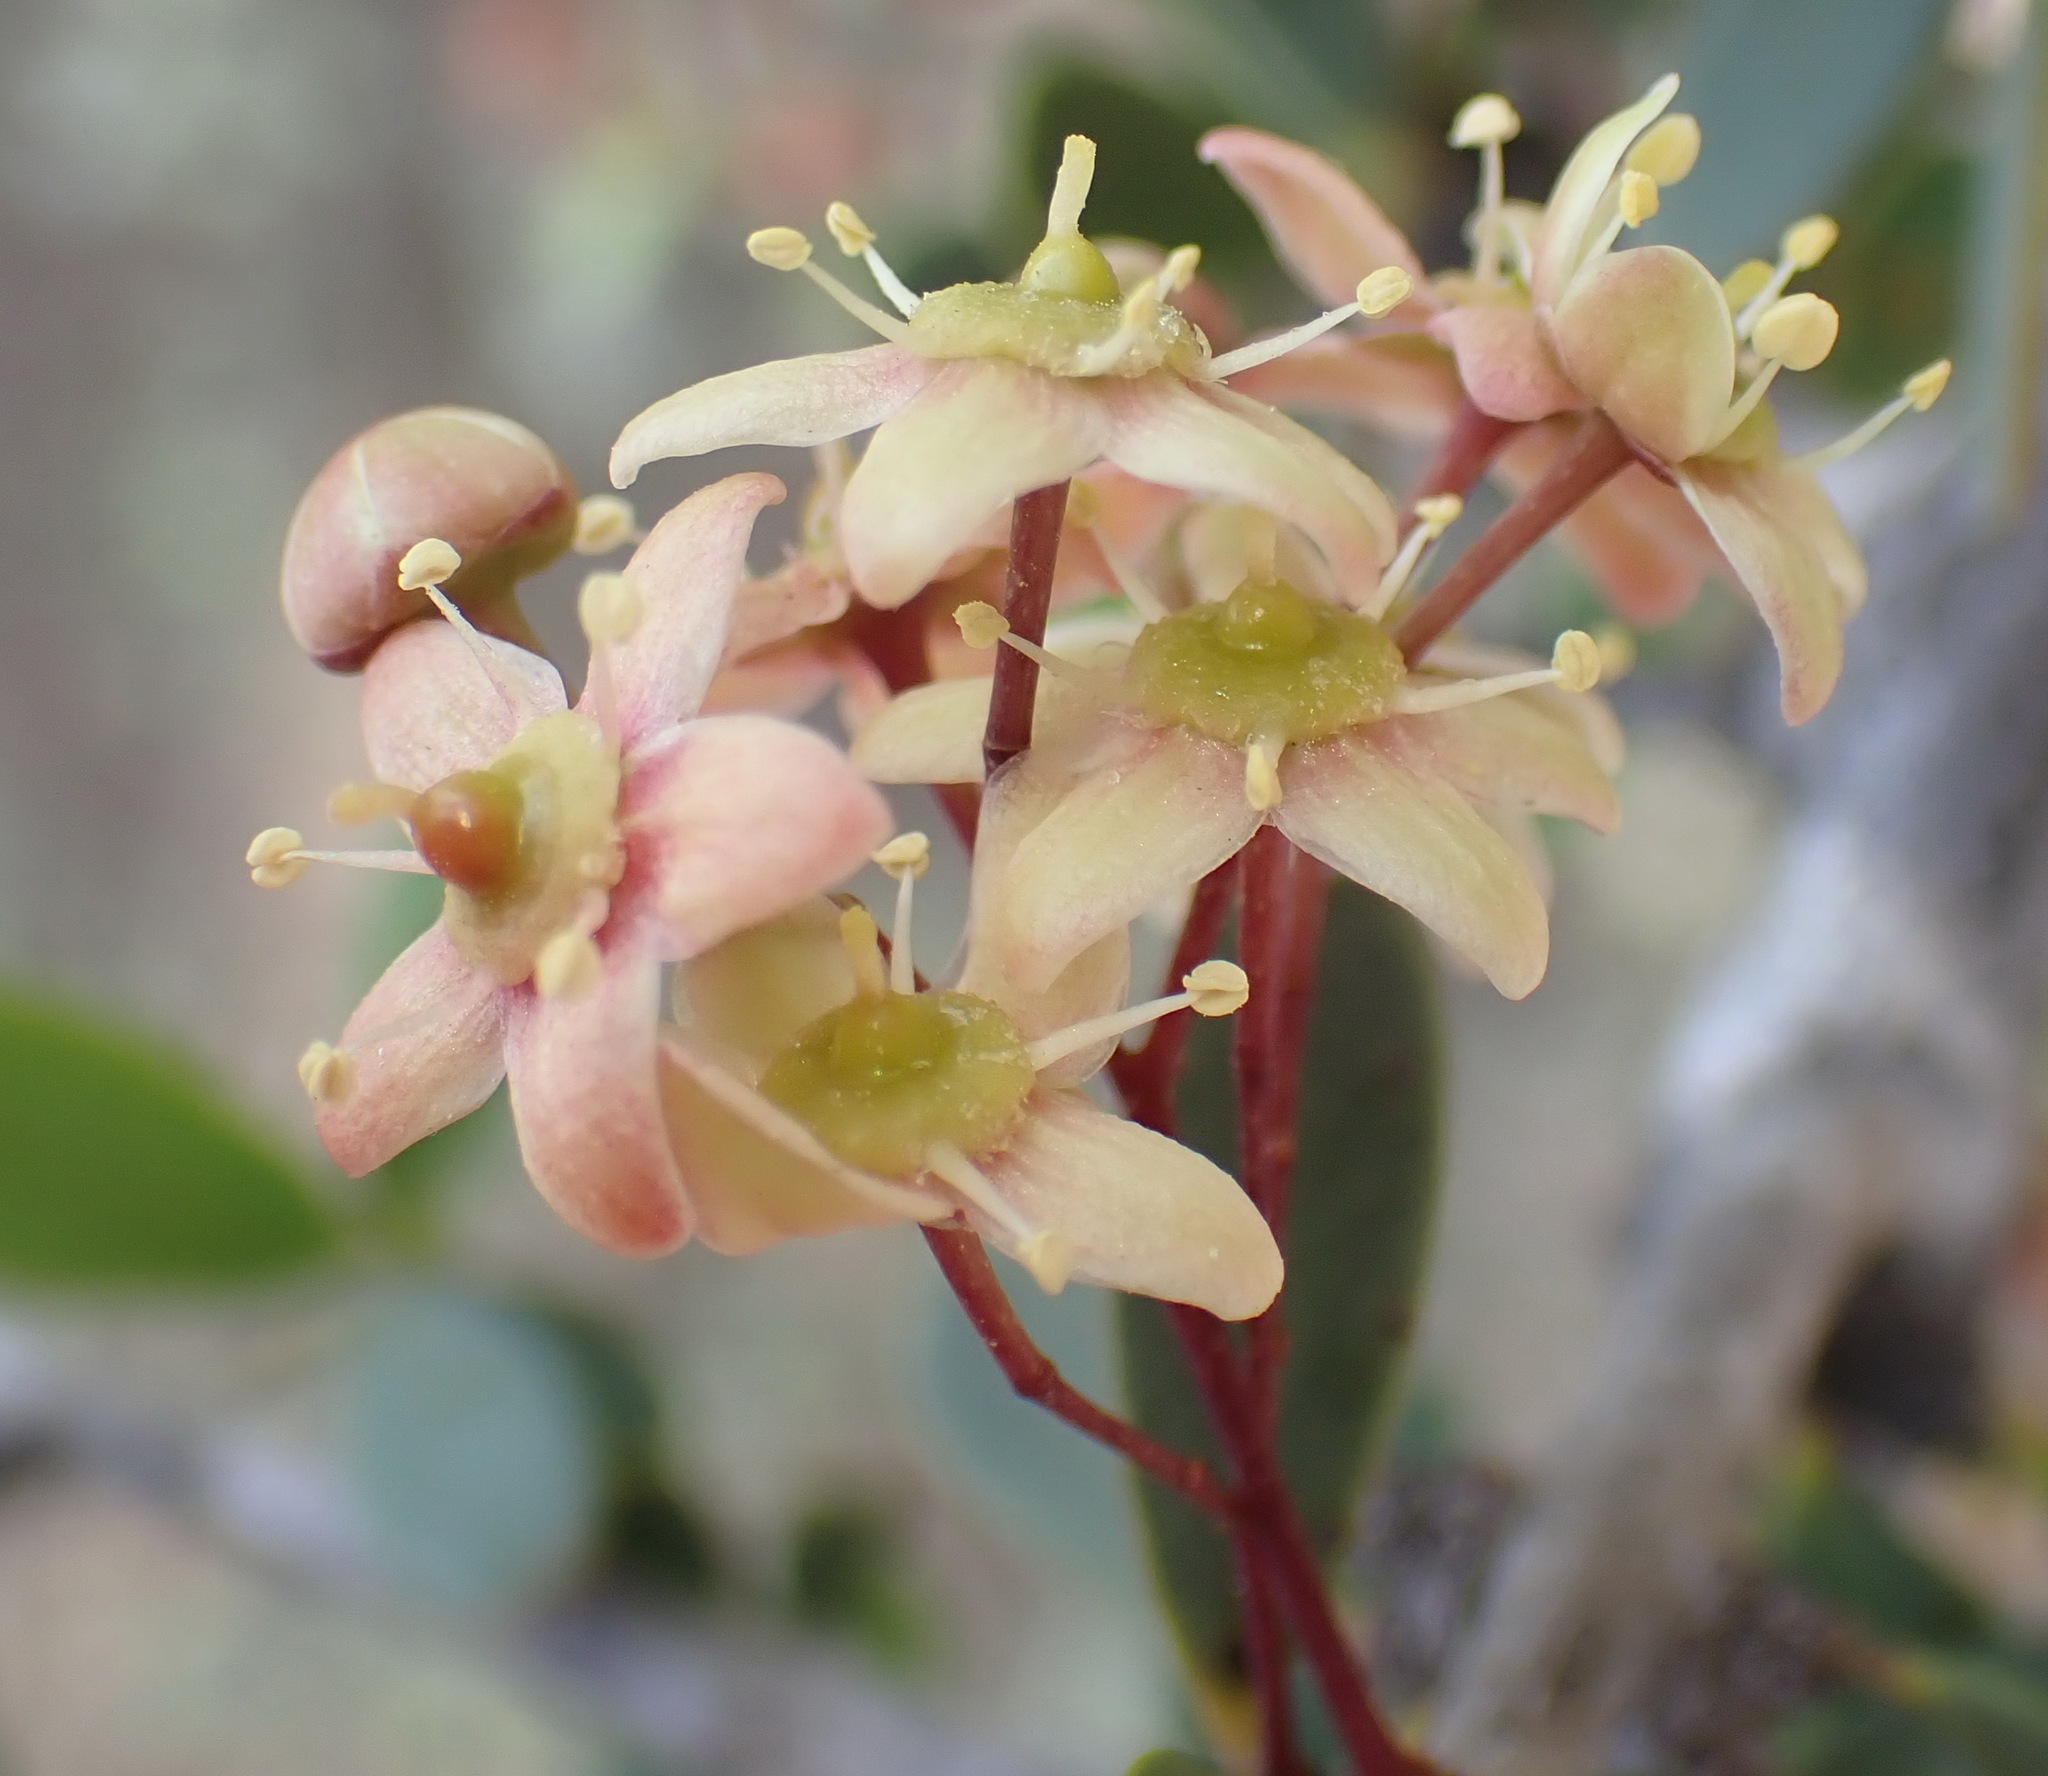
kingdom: Plantae
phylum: Tracheophyta
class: Magnoliopsida
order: Celastrales
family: Celastraceae
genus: Gloveria
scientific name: Gloveria integrifolia
